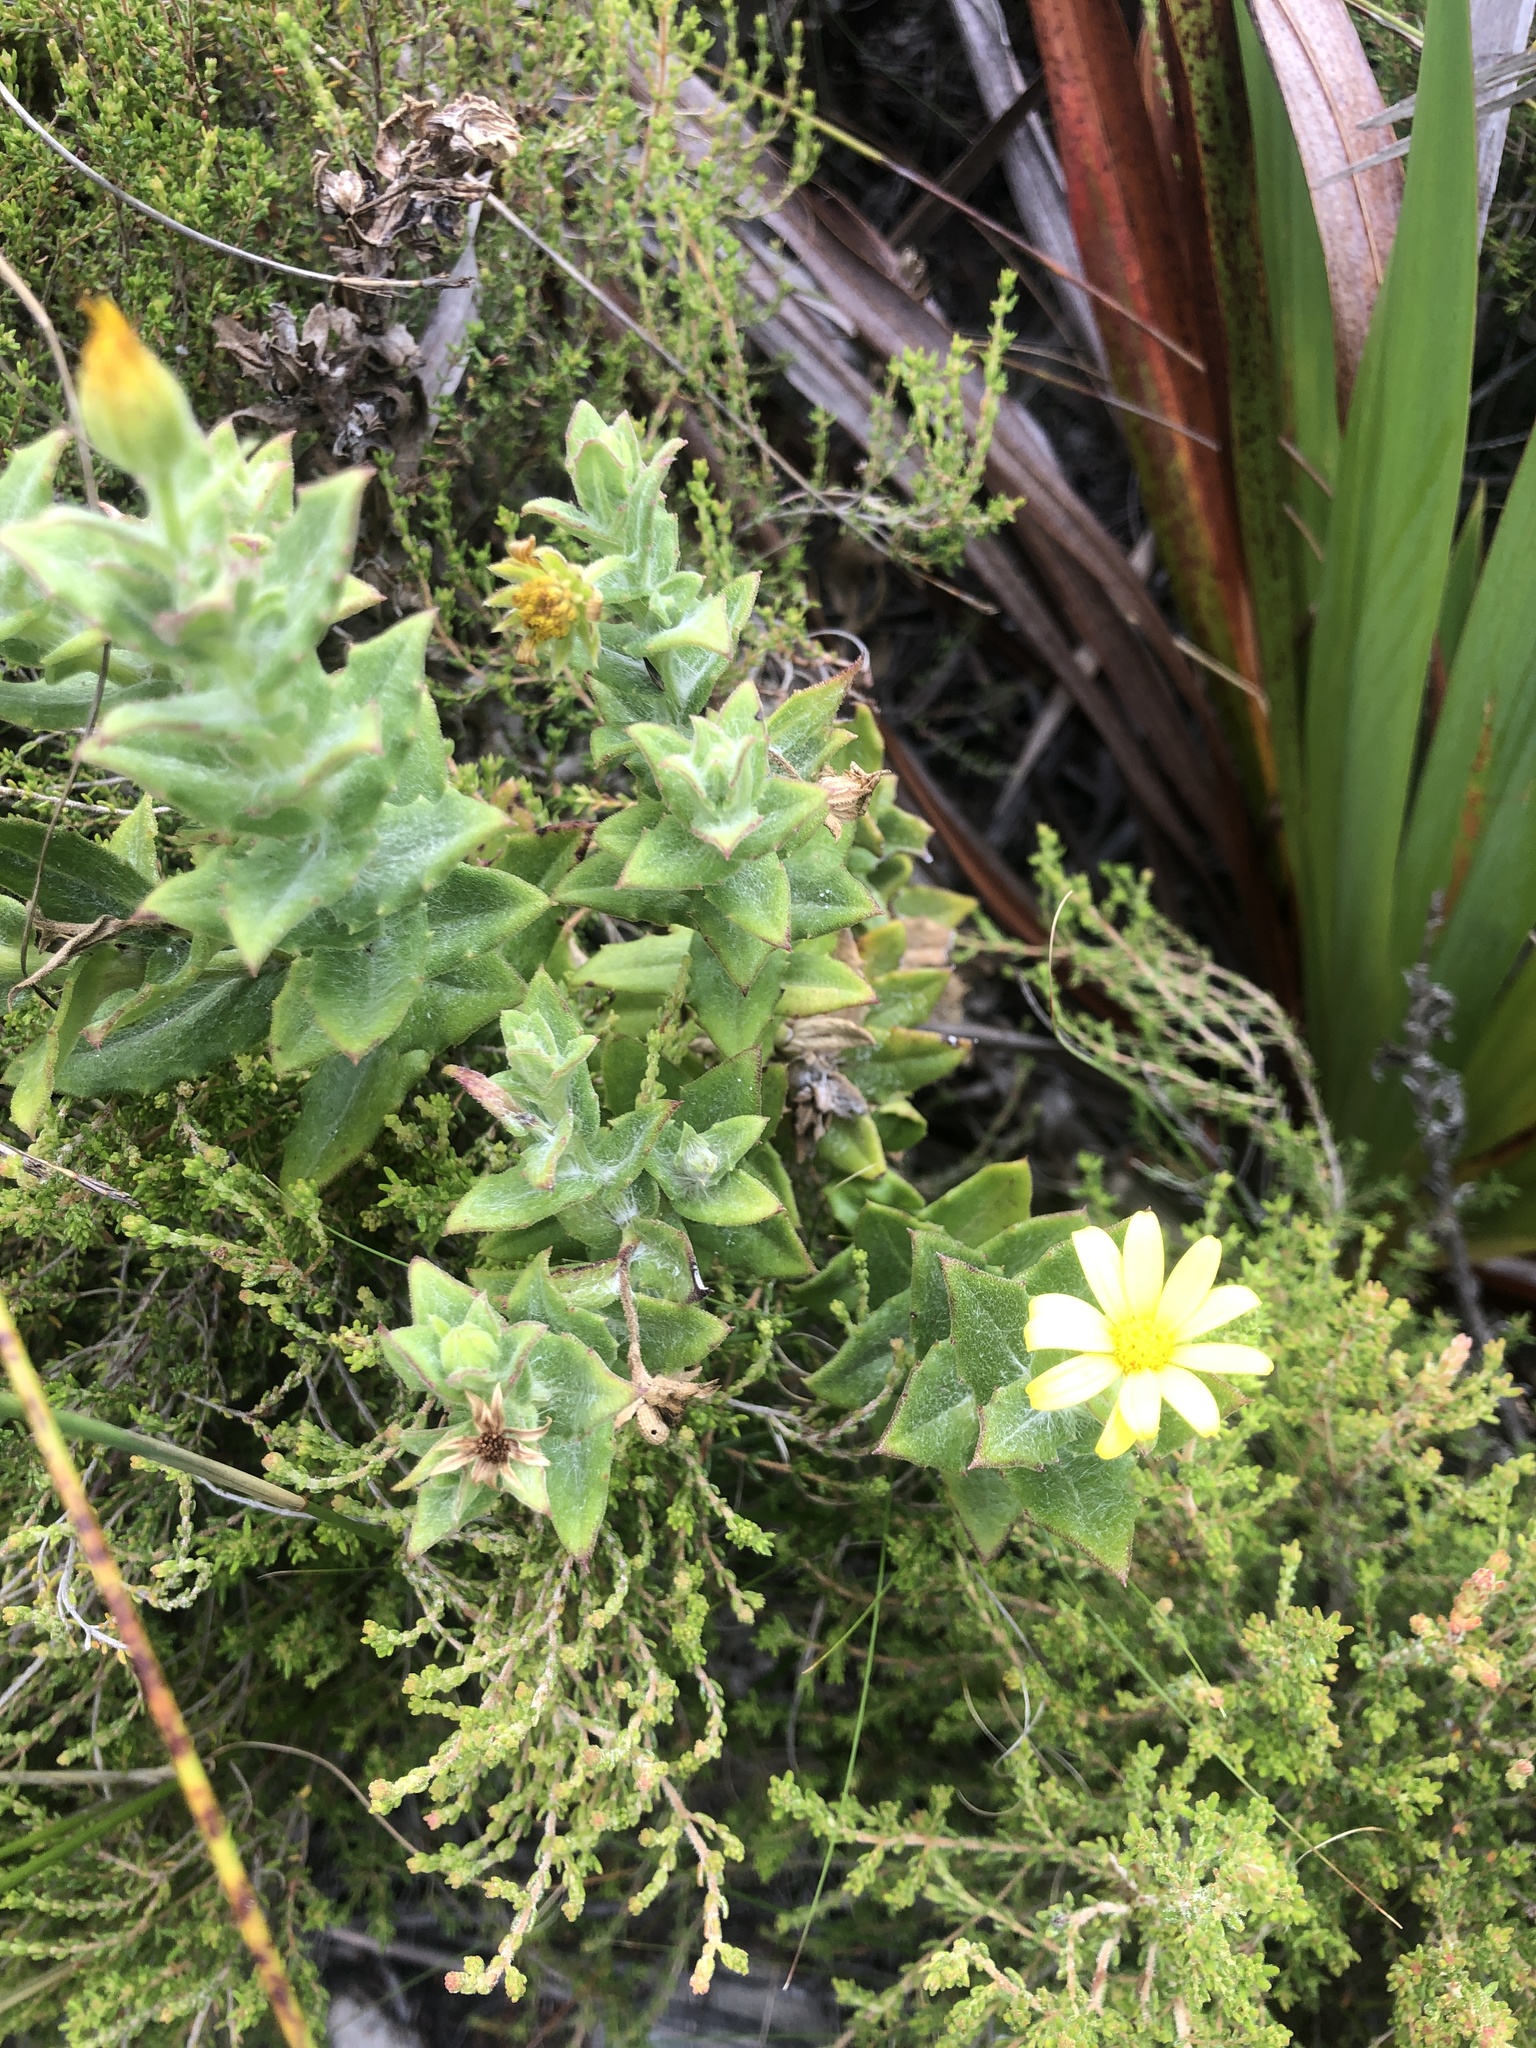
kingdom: Plantae
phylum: Tracheophyta
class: Magnoliopsida
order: Asterales
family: Asteraceae
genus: Osteospermum
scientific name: Osteospermum ilicifolium
